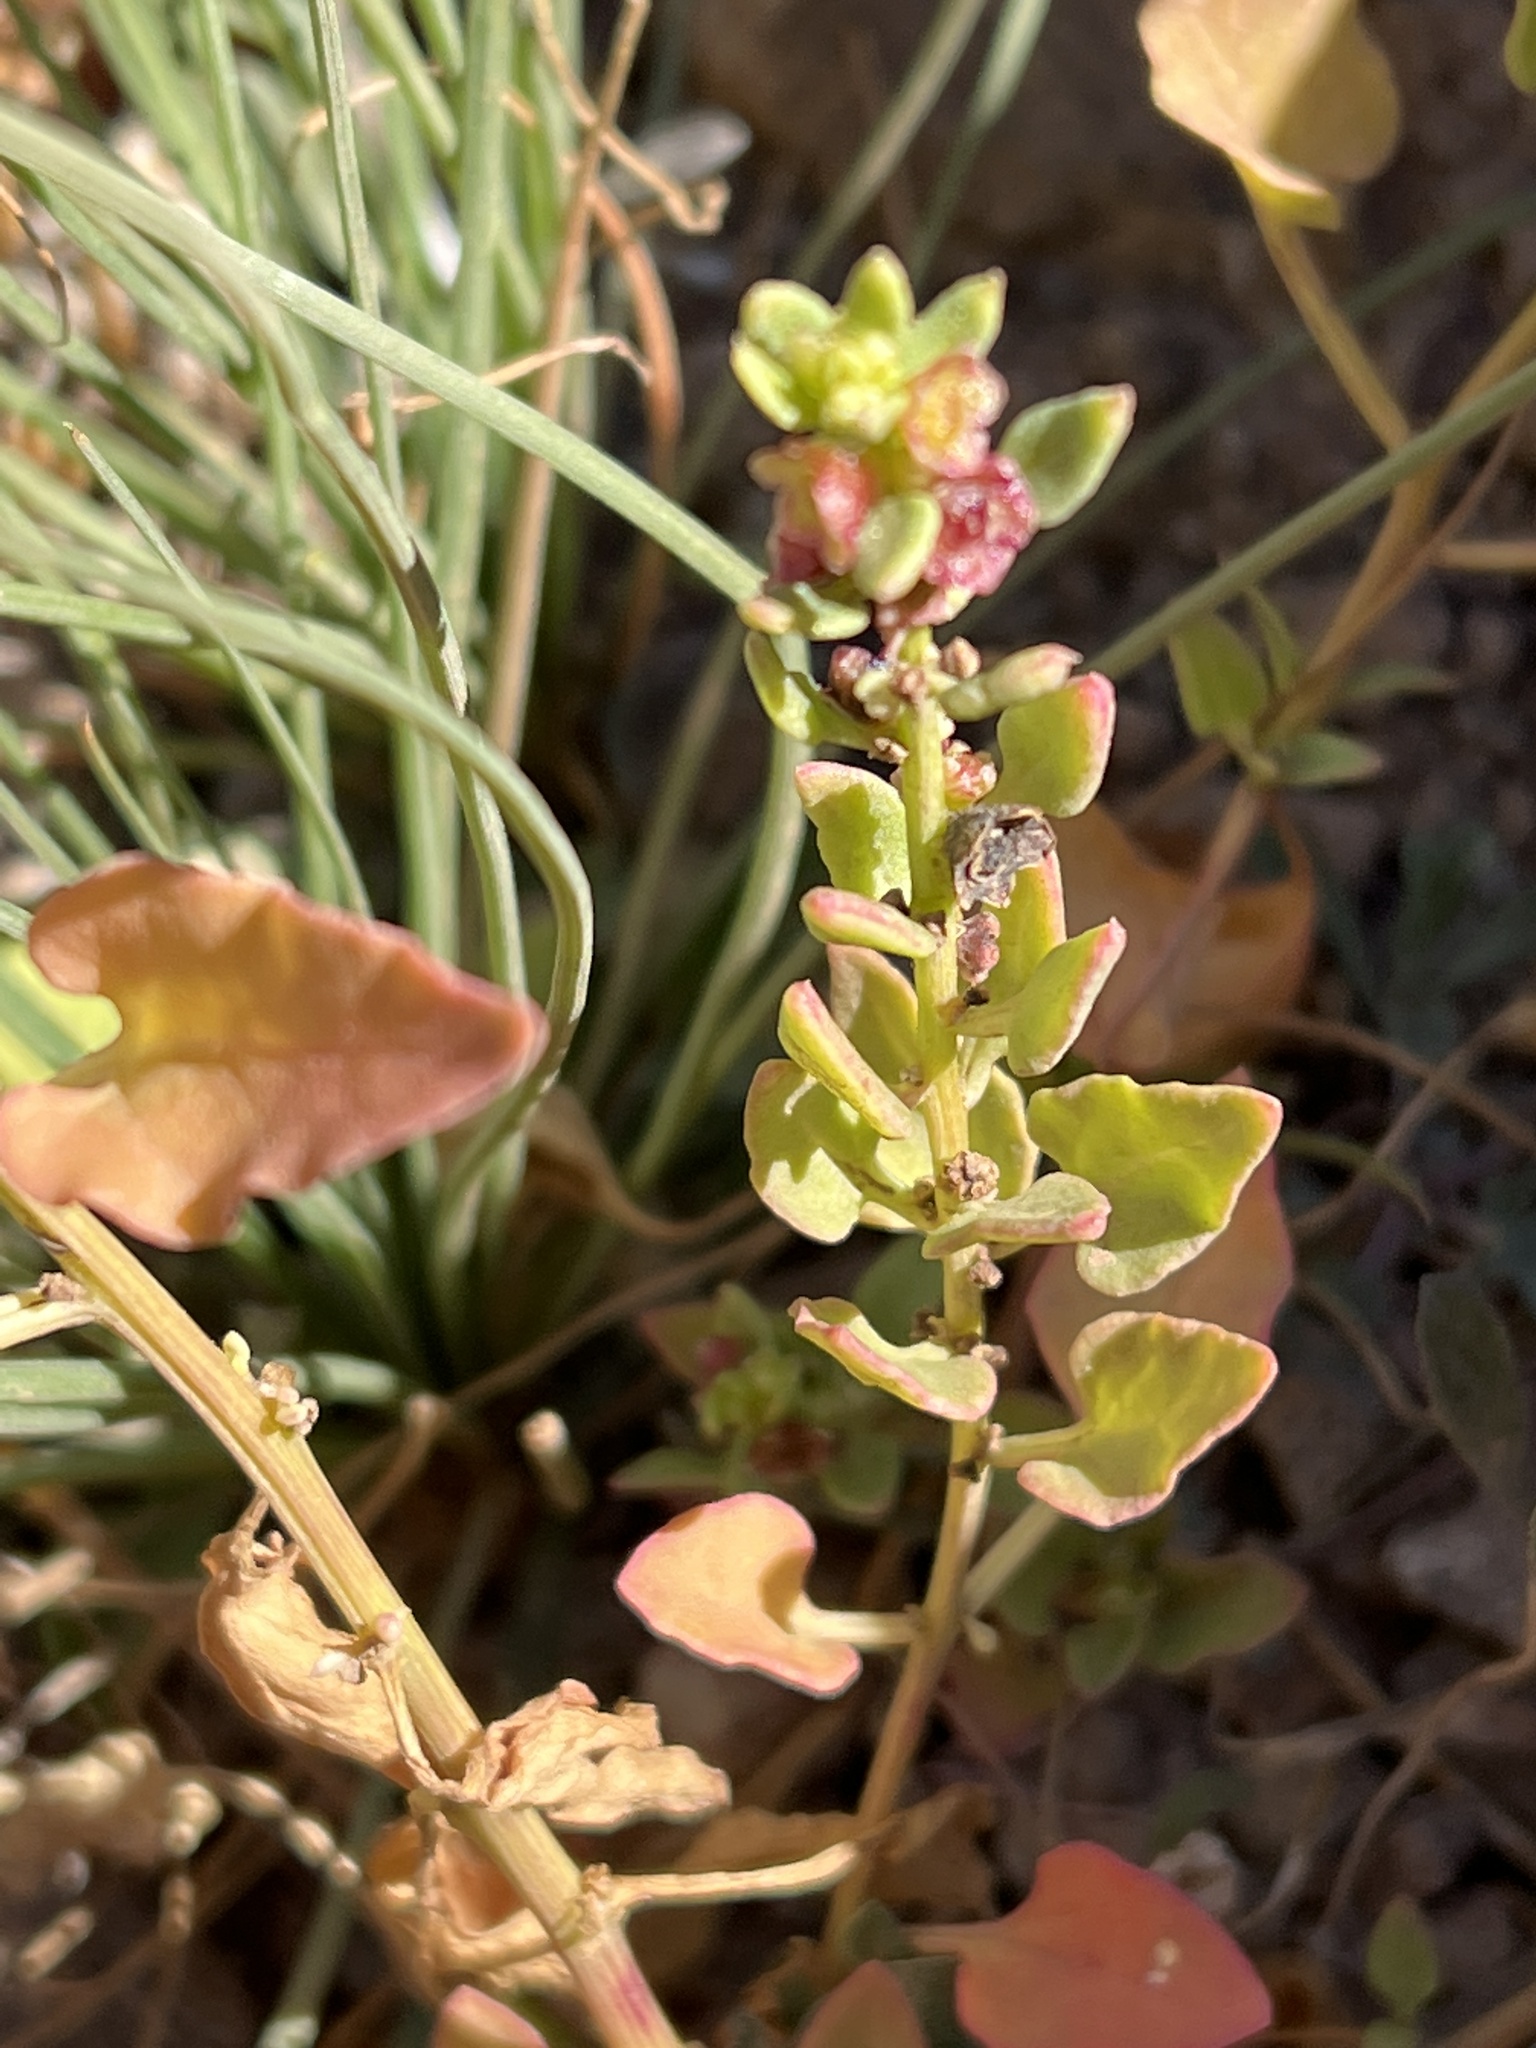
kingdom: Plantae
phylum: Tracheophyta
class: Magnoliopsida
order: Caryophyllales
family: Amaranthaceae
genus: Patellifolia
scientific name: Patellifolia procumbens
